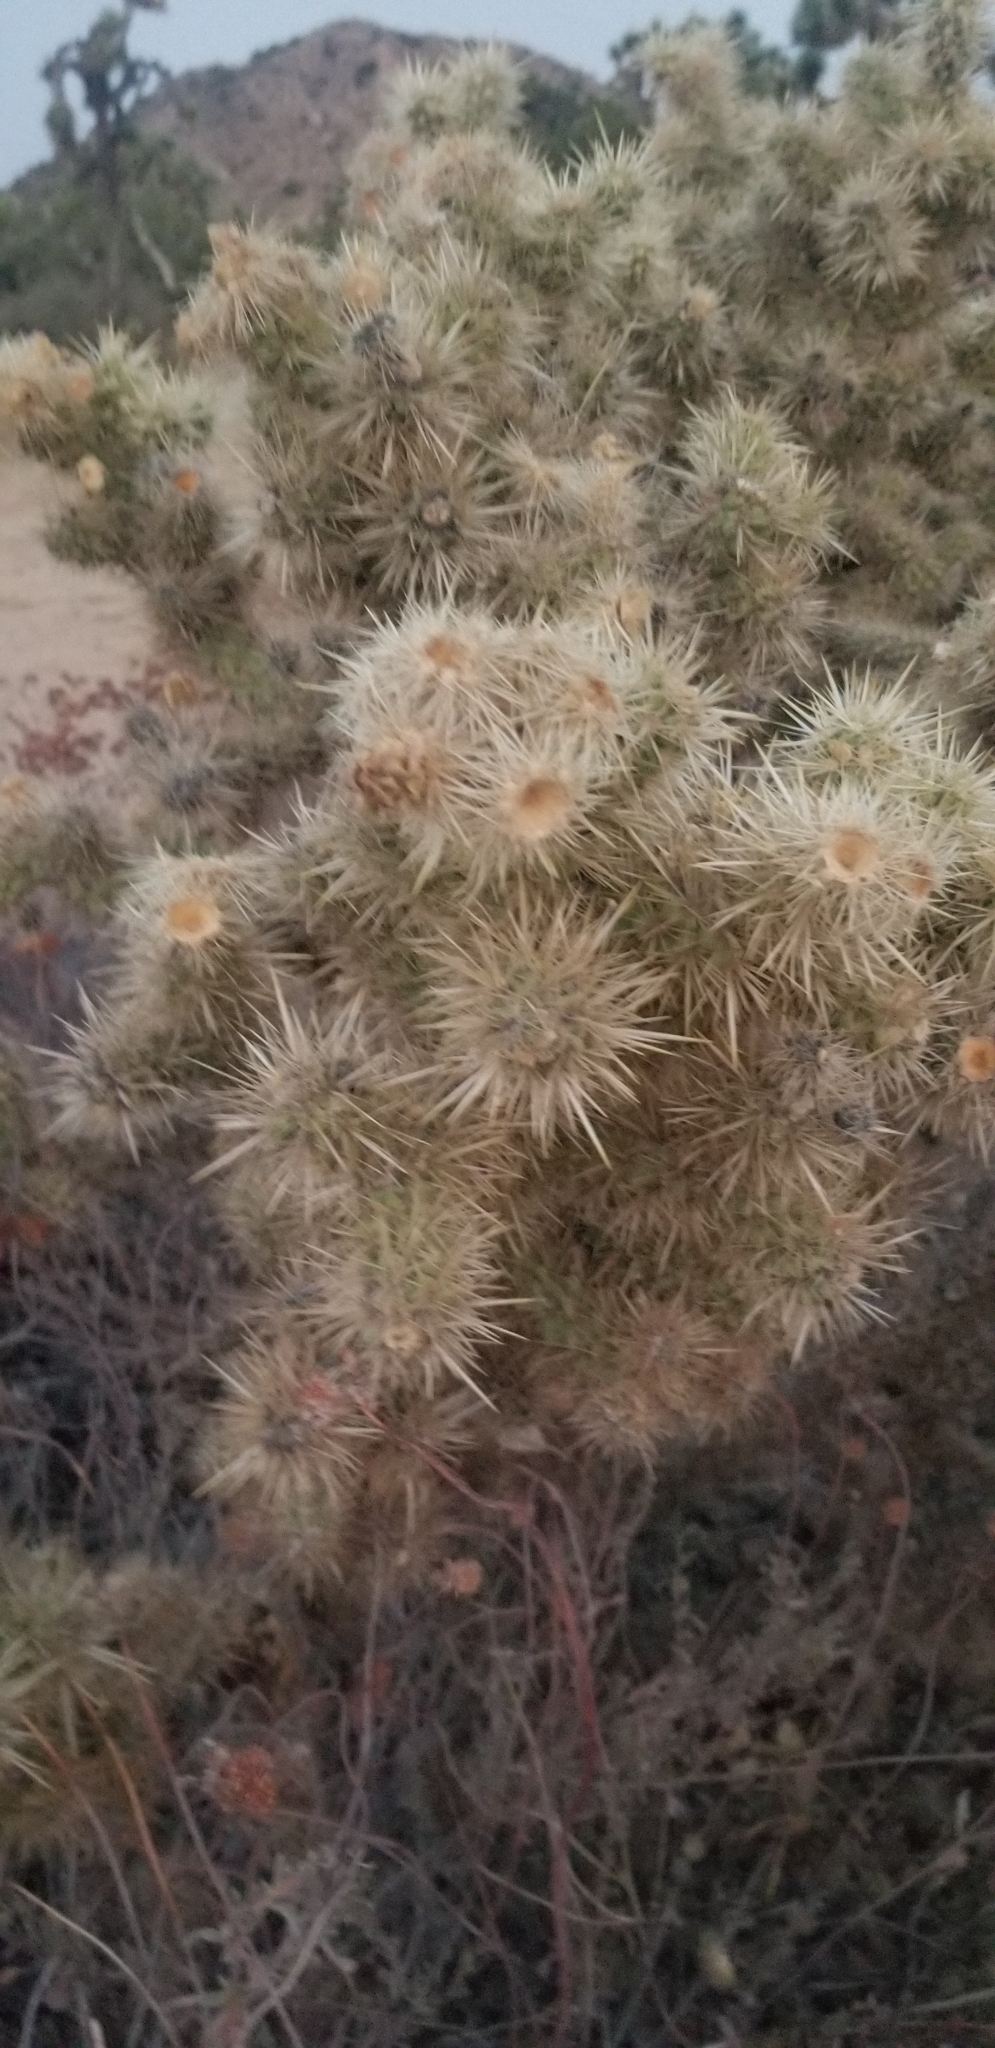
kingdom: Plantae
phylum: Tracheophyta
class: Magnoliopsida
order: Caryophyllales
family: Cactaceae
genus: Cylindropuntia
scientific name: Cylindropuntia echinocarpa
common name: Ground cholla
